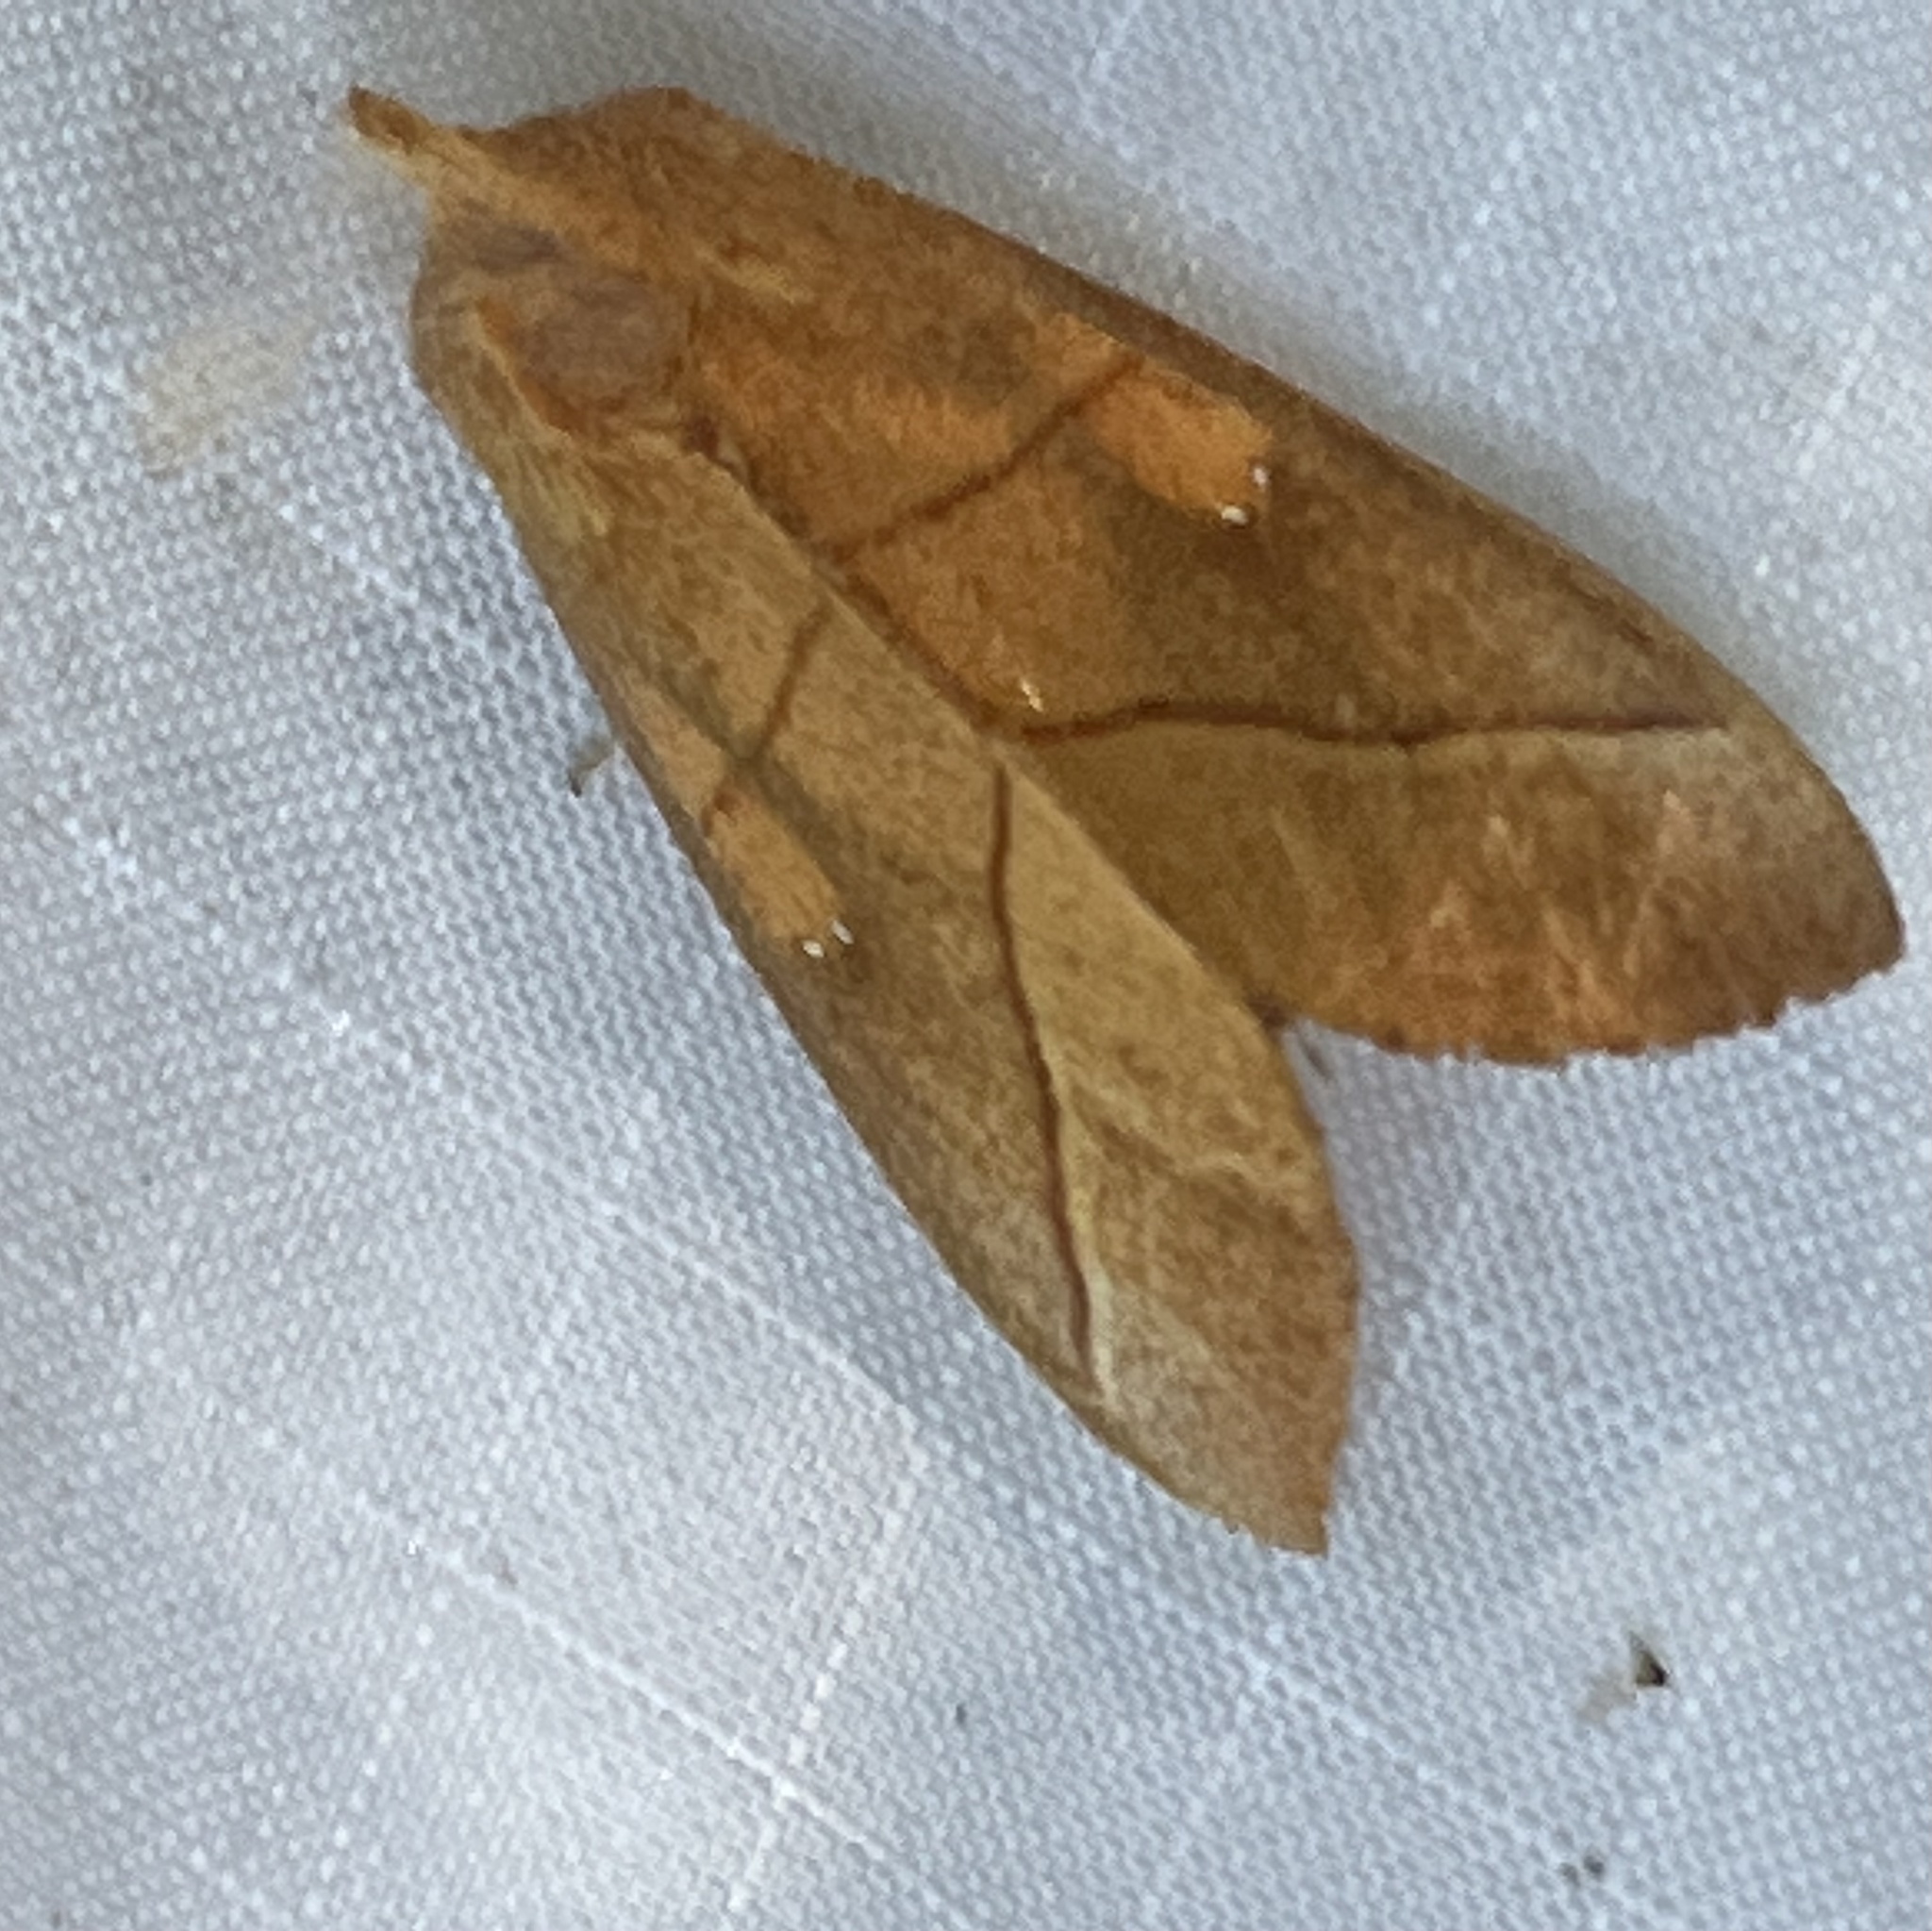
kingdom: Animalia
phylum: Arthropoda
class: Insecta
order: Lepidoptera
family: Notodontidae
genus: Nadata
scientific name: Nadata gibbosa
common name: White-dotted prominent
